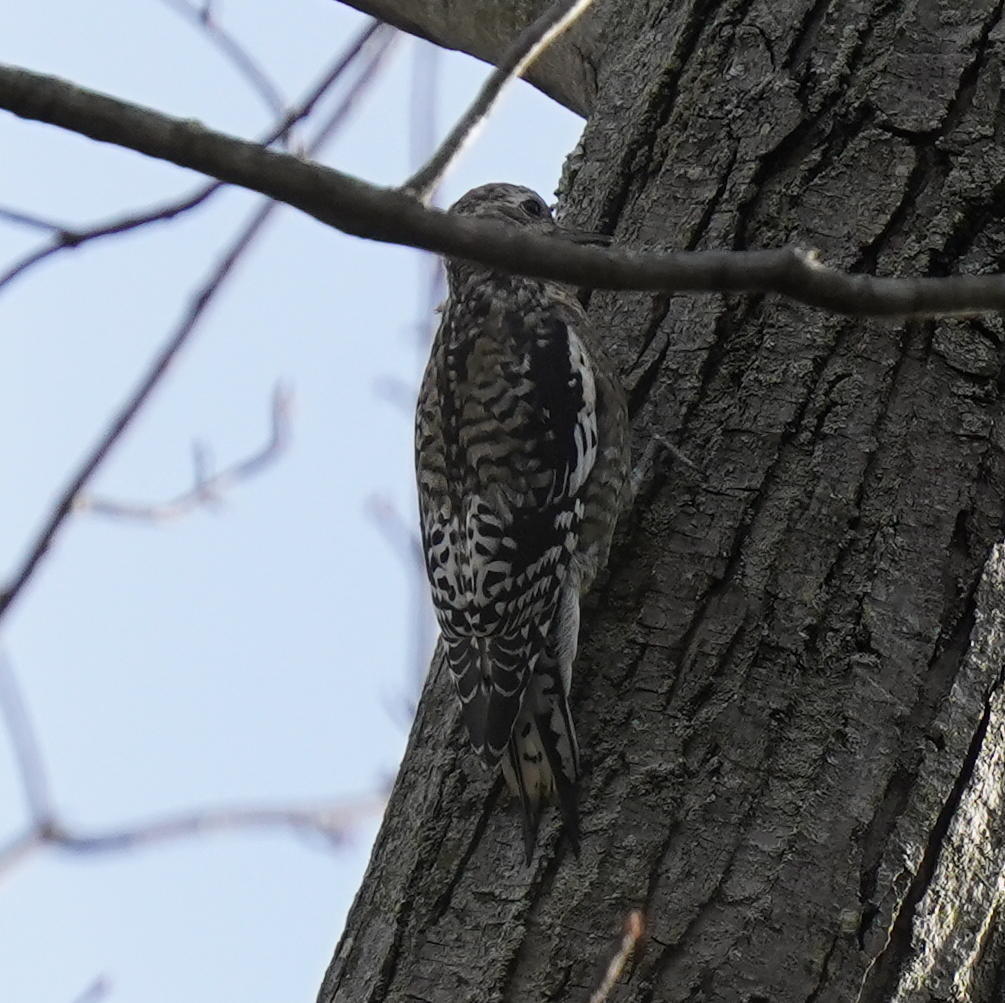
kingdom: Animalia
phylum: Chordata
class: Aves
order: Piciformes
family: Picidae
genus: Sphyrapicus
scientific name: Sphyrapicus varius
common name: Yellow-bellied sapsucker
